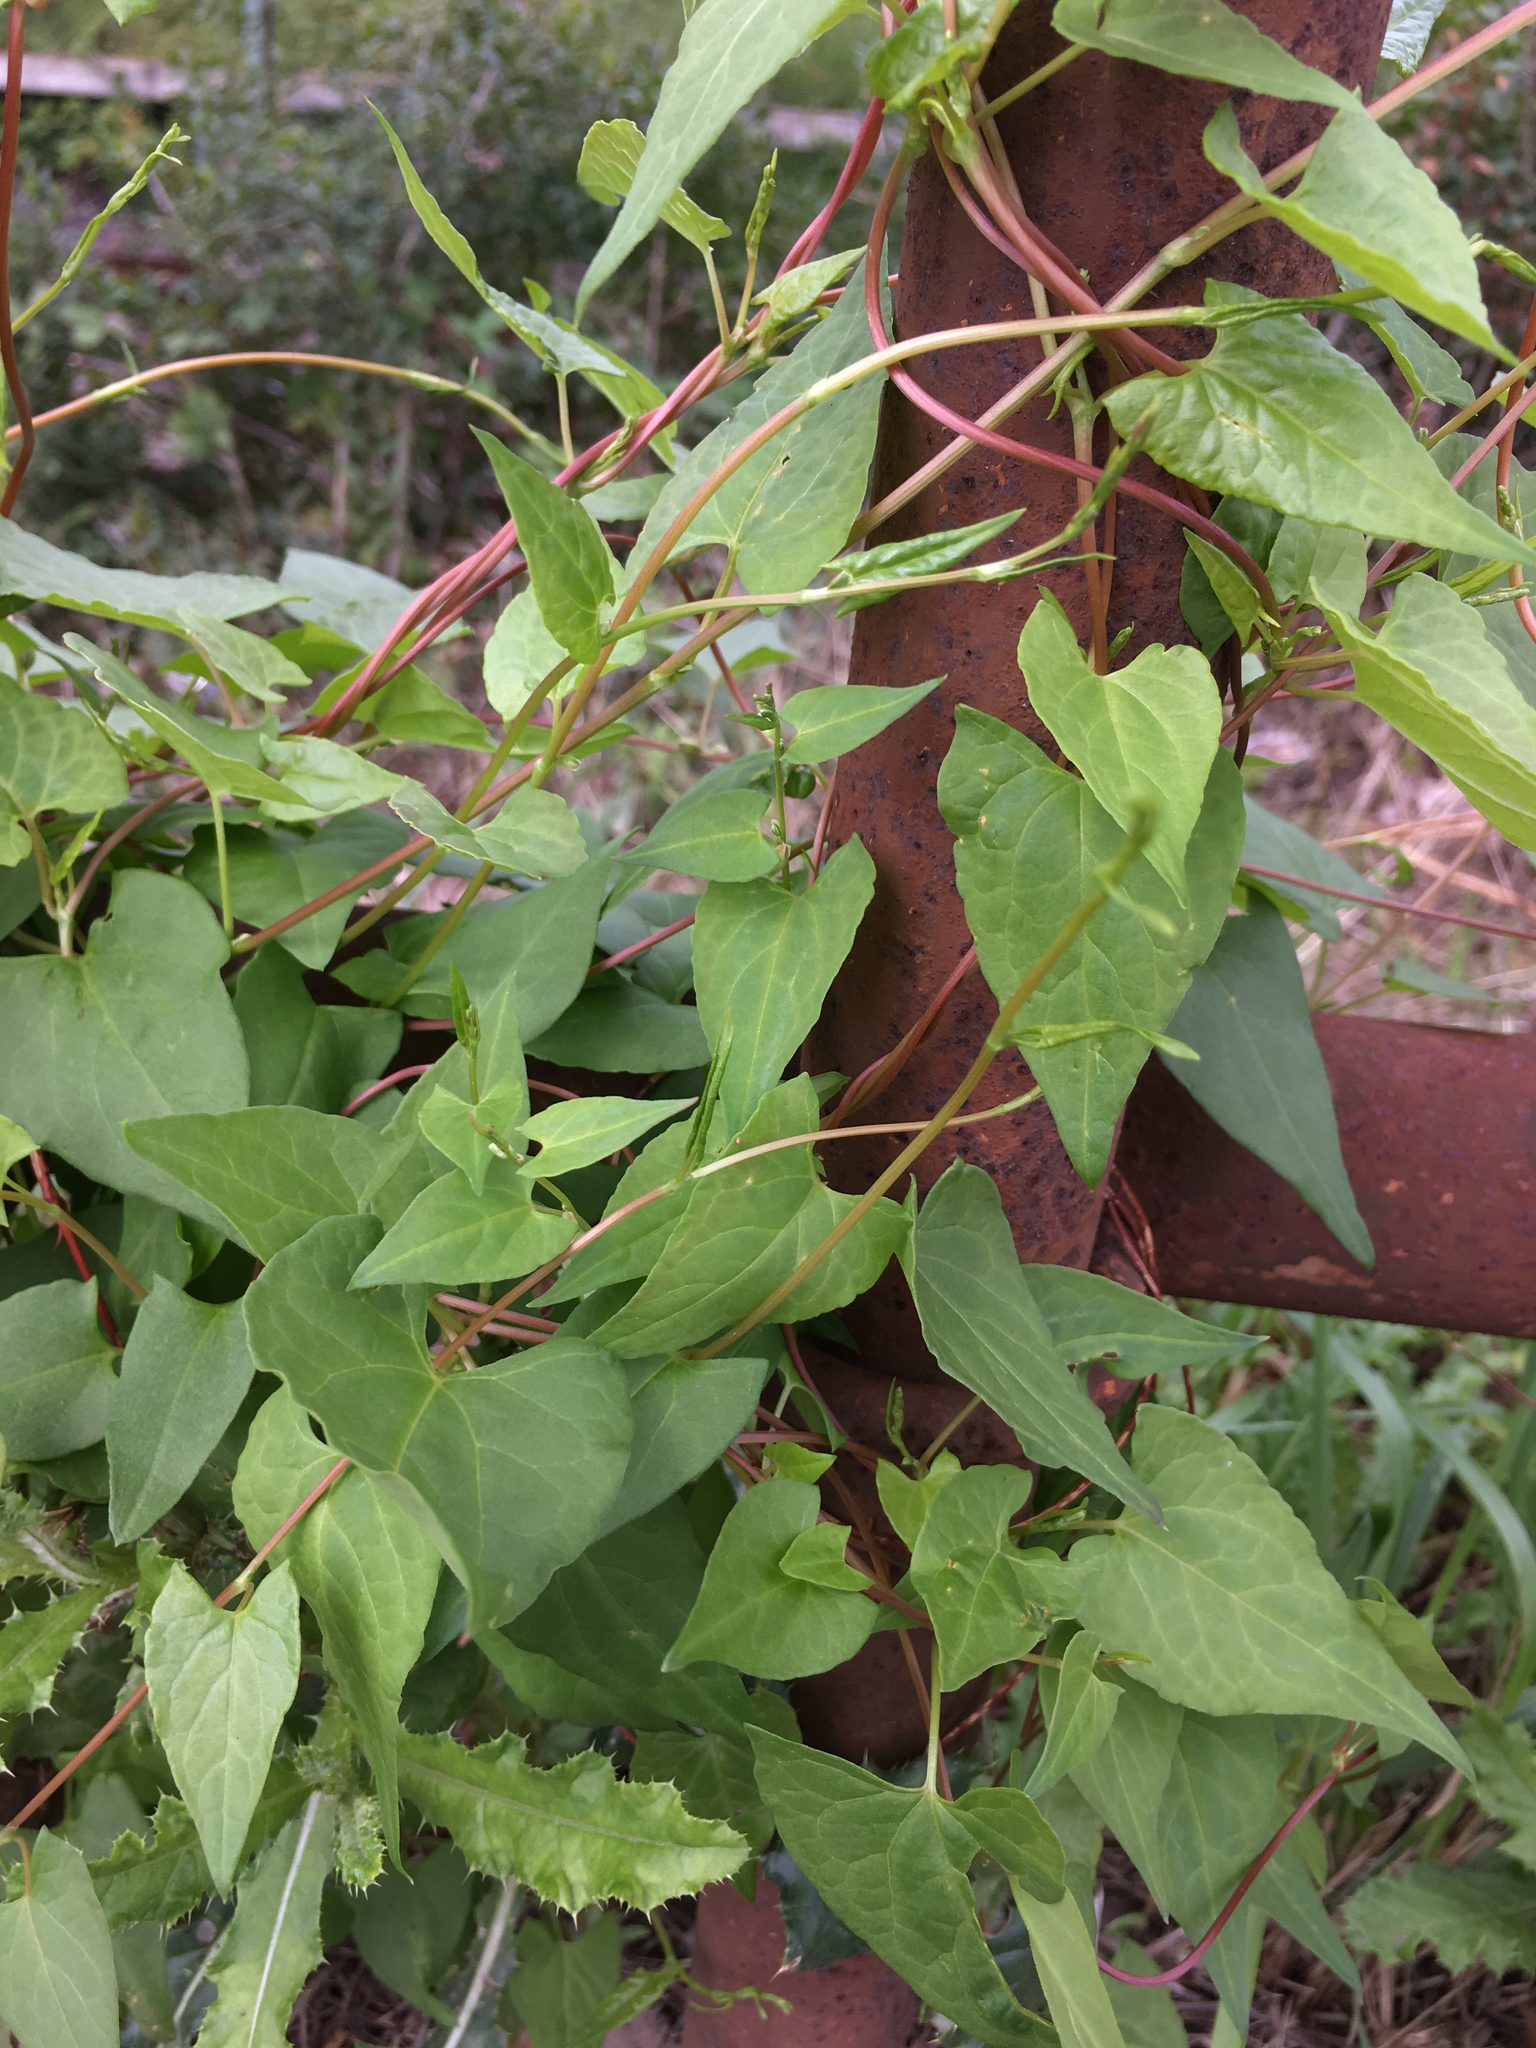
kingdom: Plantae
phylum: Tracheophyta
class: Magnoliopsida
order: Caryophyllales
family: Polygonaceae
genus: Fallopia
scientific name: Fallopia convolvulus
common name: Black bindweed
